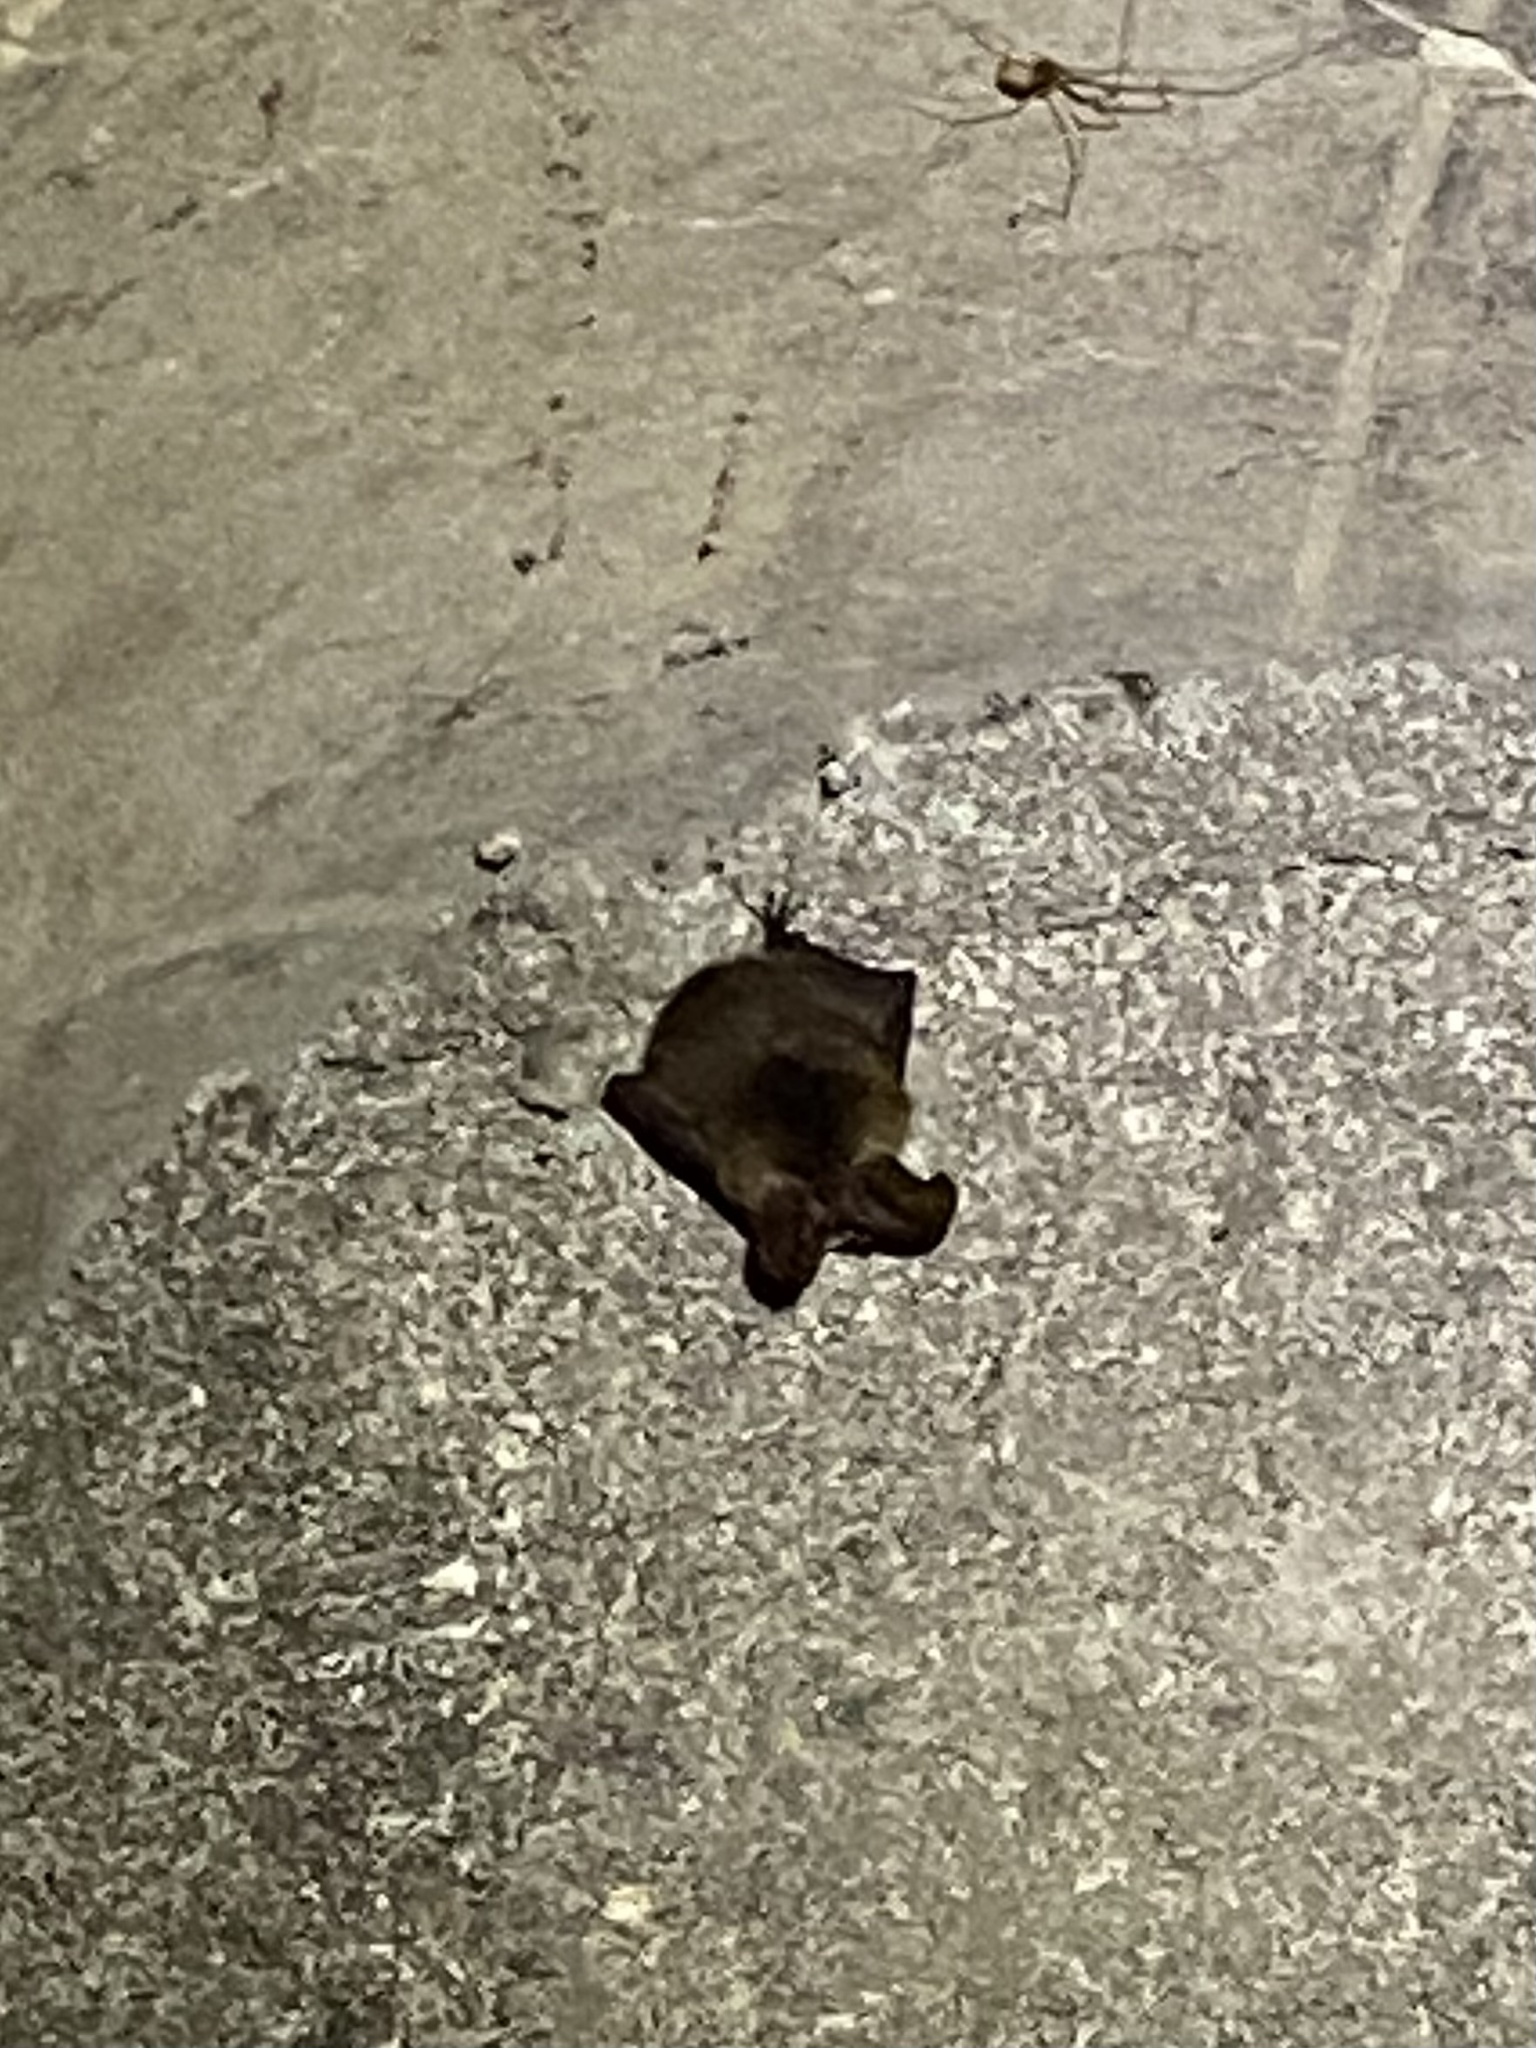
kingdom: Animalia
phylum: Chordata
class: Mammalia
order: Chiroptera
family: Vespertilionidae
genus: Corynorhinus
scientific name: Corynorhinus townsendii
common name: Townsend's big-eared bat
